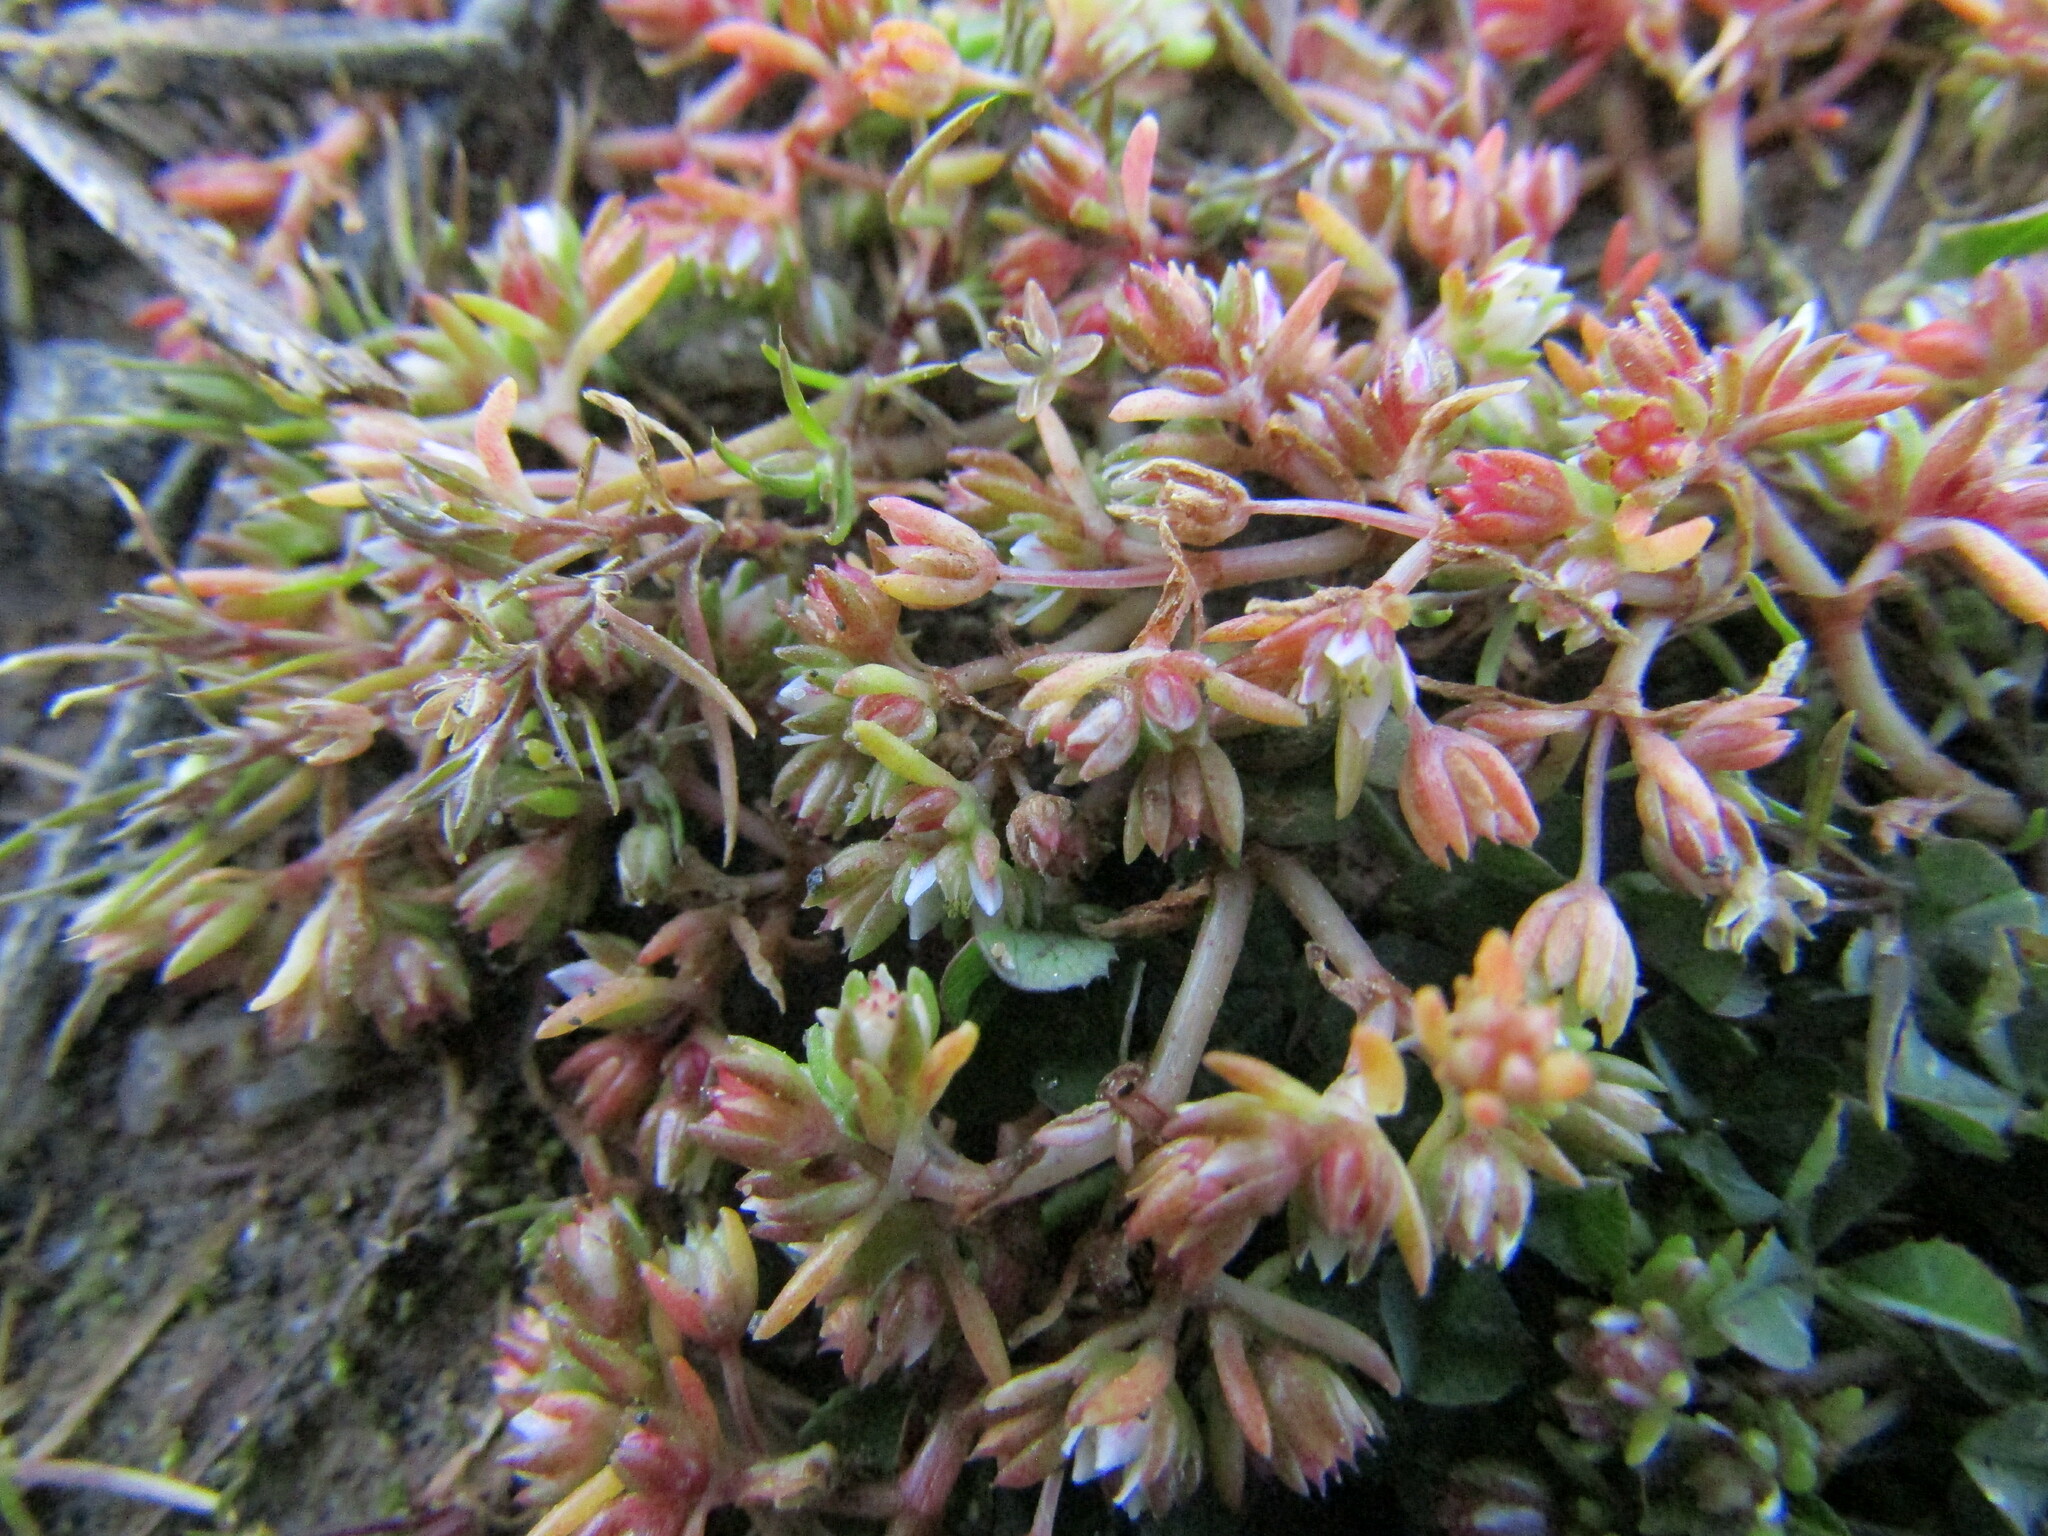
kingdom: Plantae
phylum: Tracheophyta
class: Magnoliopsida
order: Saxifragales
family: Crassulaceae
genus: Crassula
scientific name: Crassula decumbens
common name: Scilly pigmyweed
